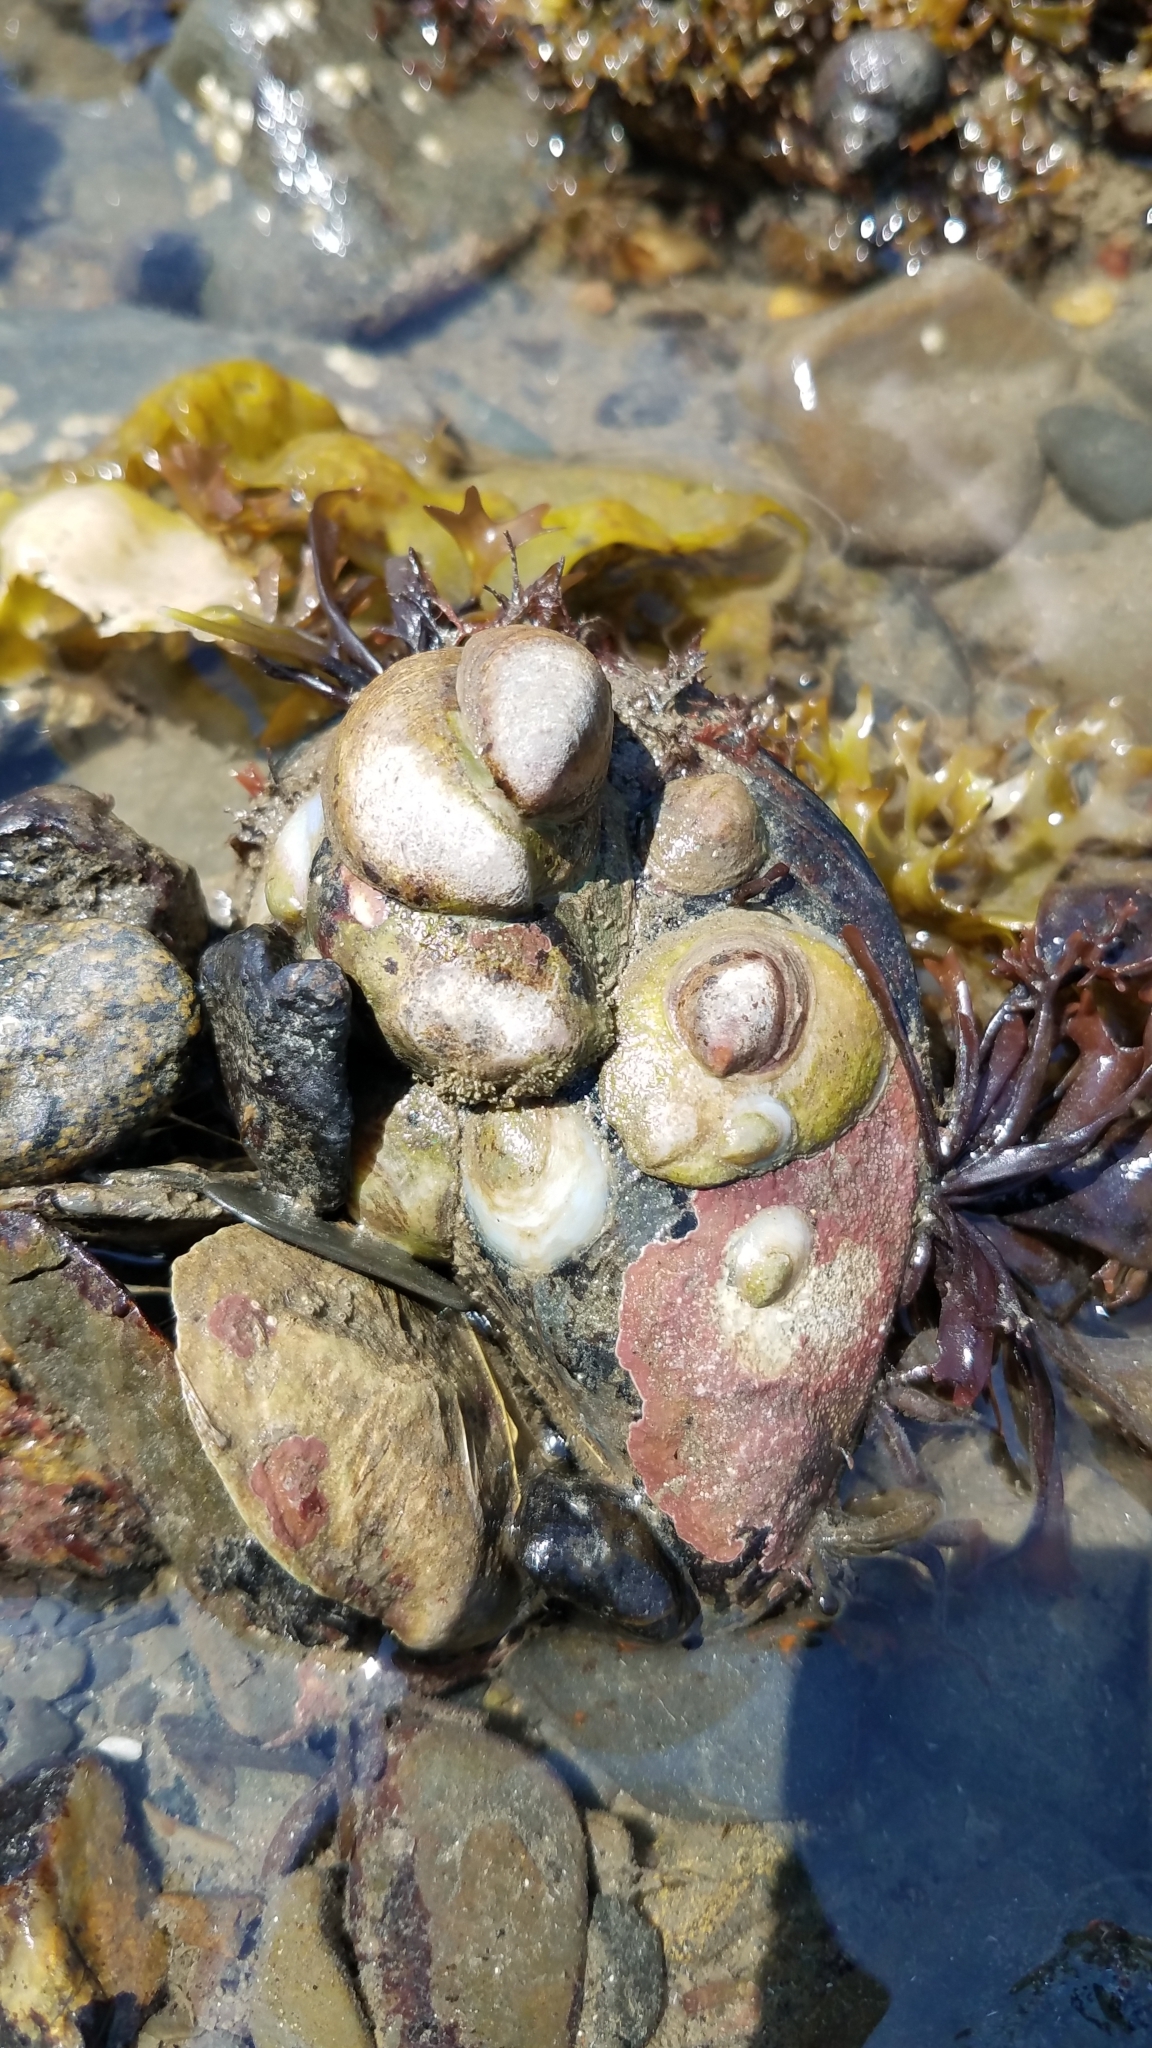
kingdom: Animalia
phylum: Mollusca
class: Gastropoda
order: Littorinimorpha
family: Calyptraeidae
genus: Crepidula
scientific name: Crepidula fornicata
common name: Slipper limpet
